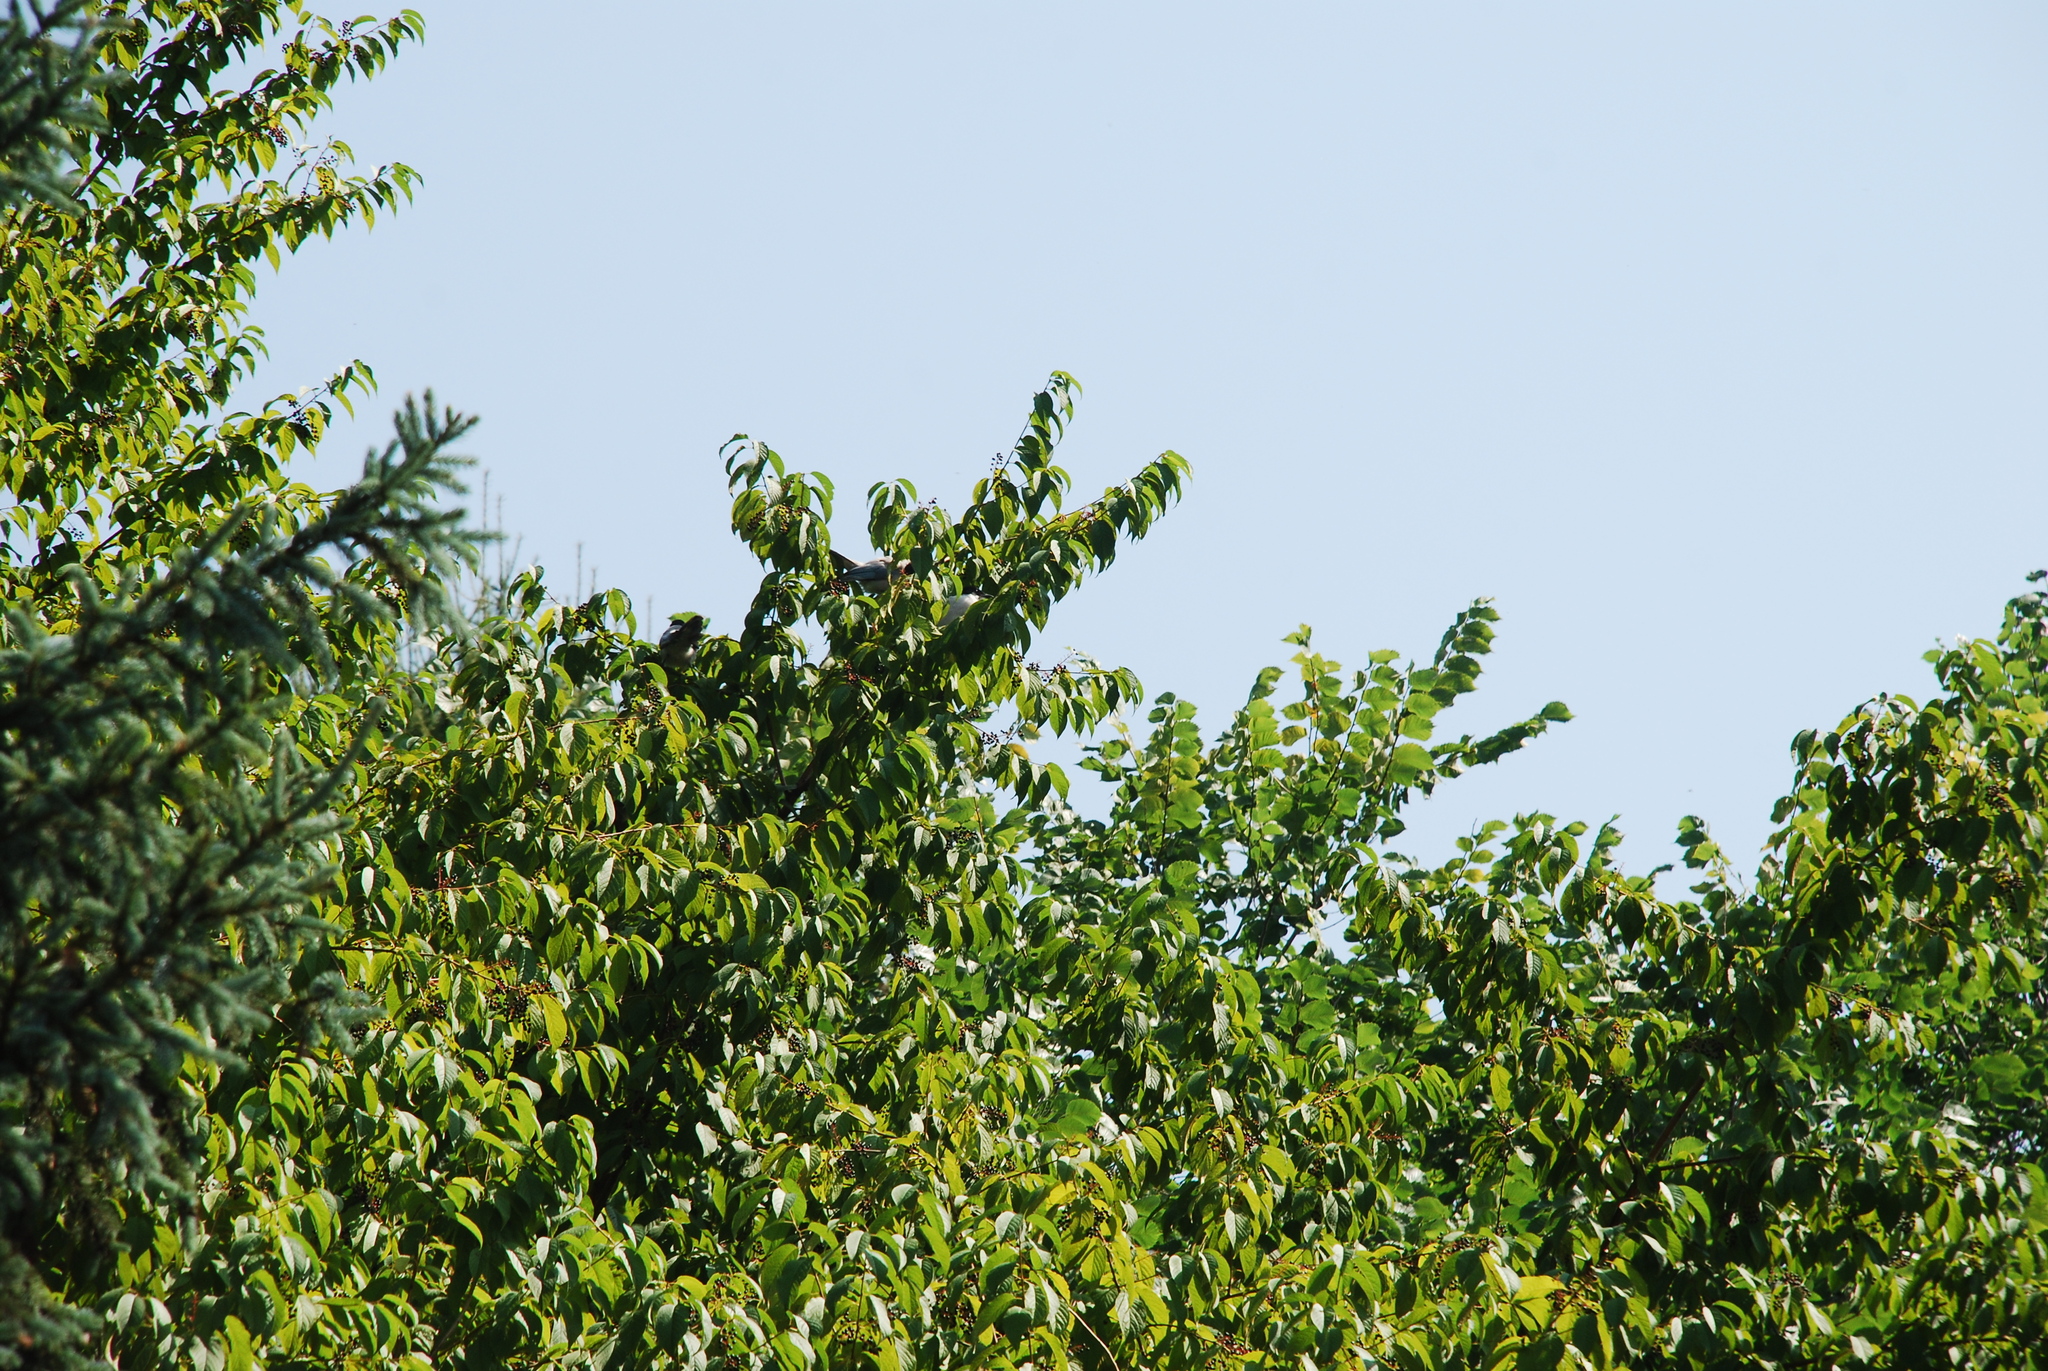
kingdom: Plantae
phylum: Tracheophyta
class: Magnoliopsida
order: Rosales
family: Rosaceae
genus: Prunus
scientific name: Prunus padus
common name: Bird cherry
